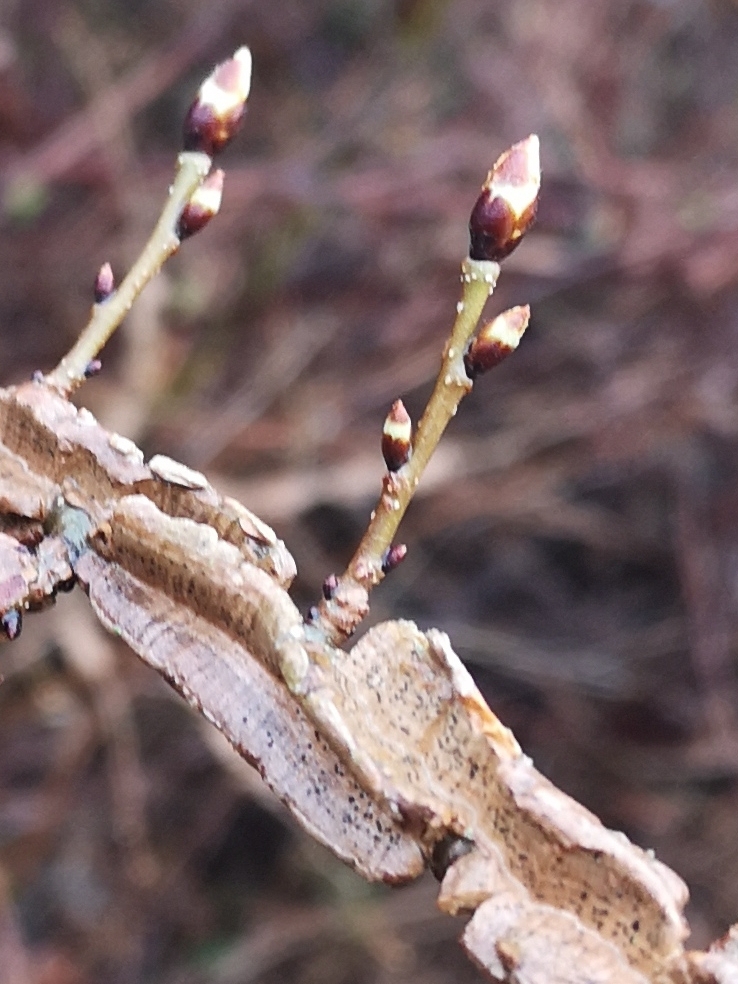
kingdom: Plantae
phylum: Tracheophyta
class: Magnoliopsida
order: Rosales
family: Ulmaceae
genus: Ulmus
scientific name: Ulmus minor
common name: Small-leaved elm
